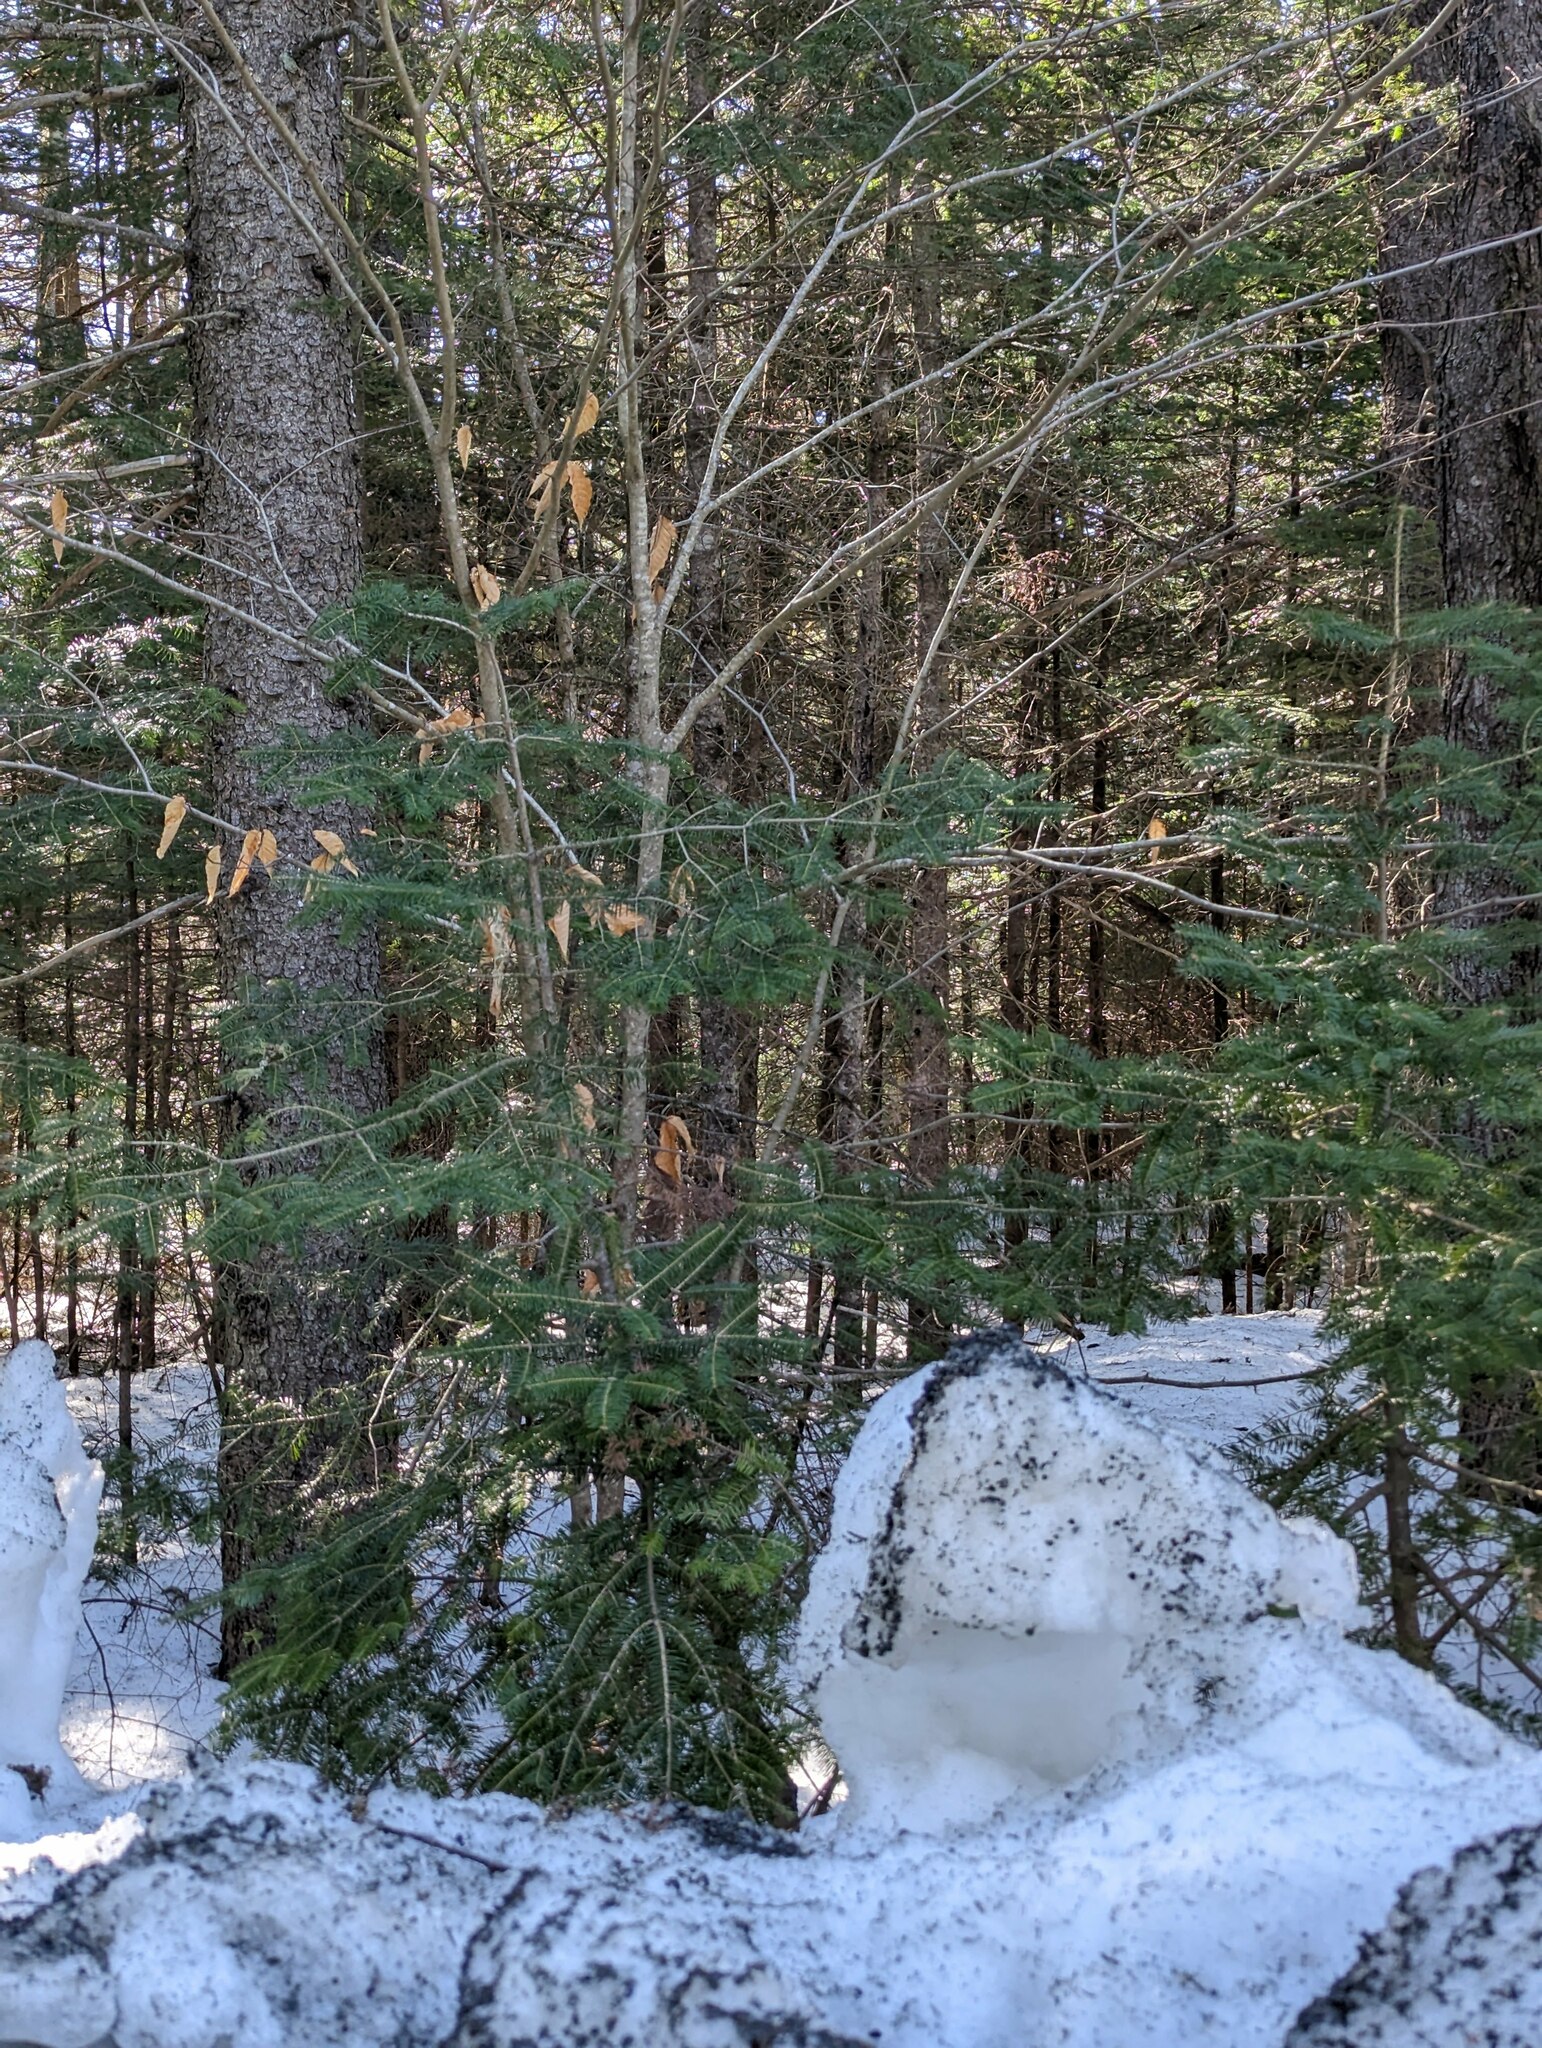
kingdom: Plantae
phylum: Tracheophyta
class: Pinopsida
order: Pinales
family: Pinaceae
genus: Abies
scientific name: Abies balsamea
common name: Balsam fir
